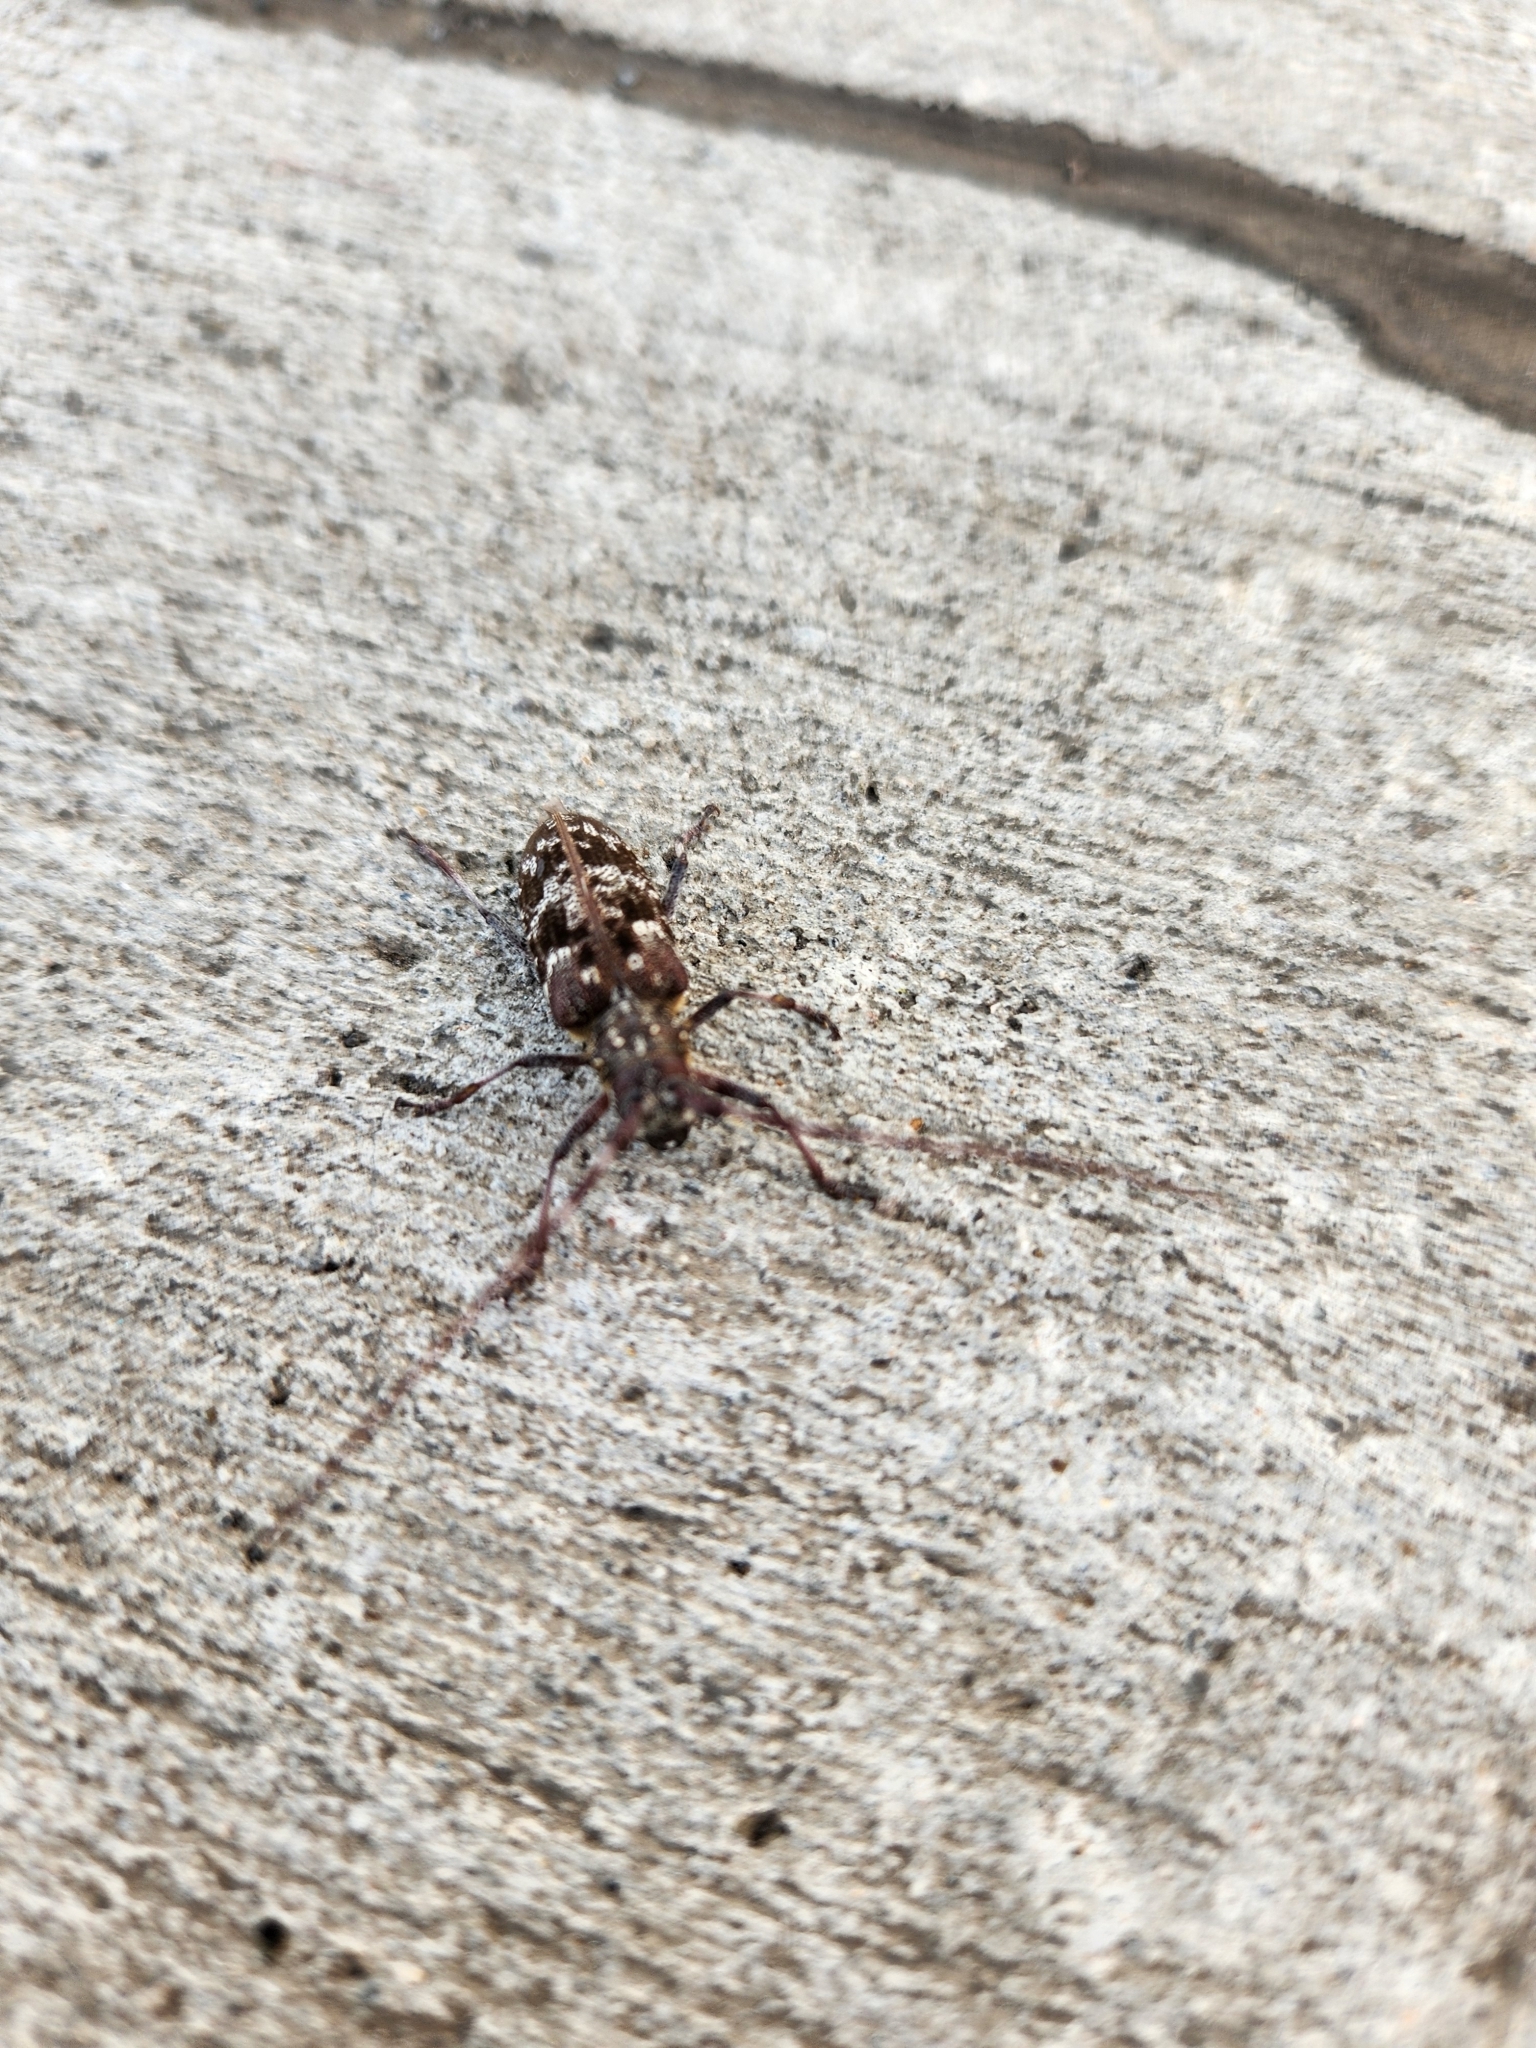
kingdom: Animalia
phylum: Arthropoda
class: Insecta
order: Coleoptera
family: Cerambycidae
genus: Monochamus
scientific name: Monochamus obtusus
